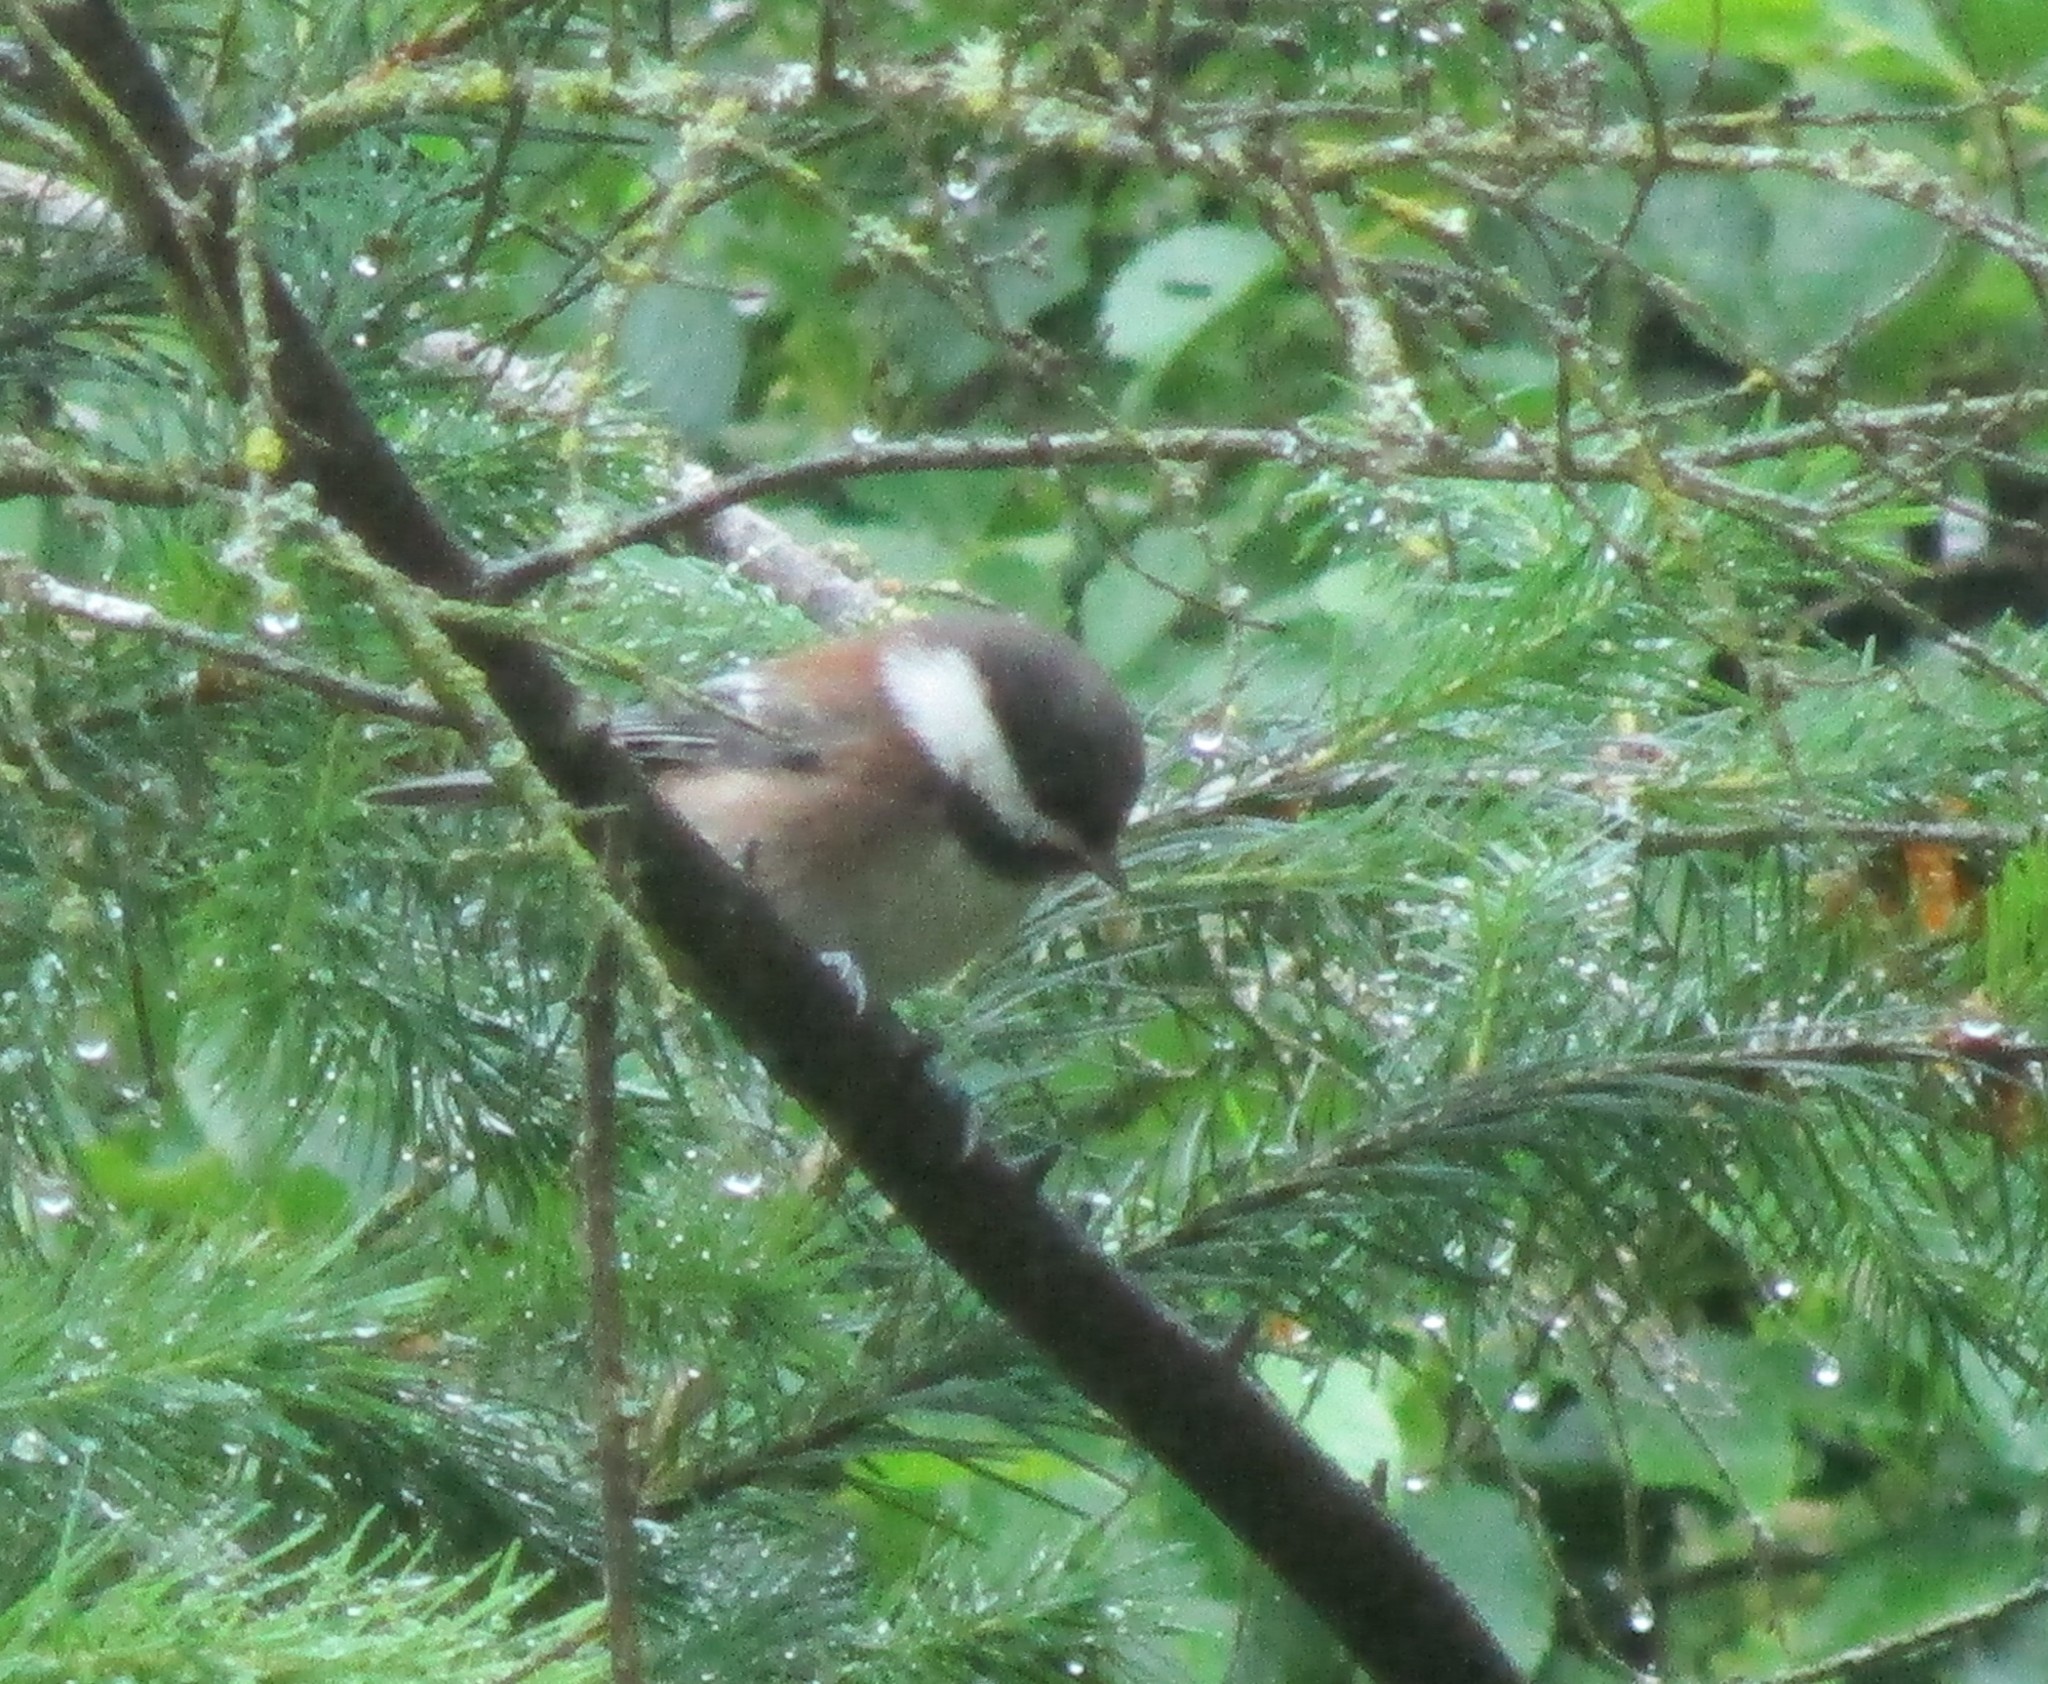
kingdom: Animalia
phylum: Chordata
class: Aves
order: Passeriformes
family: Paridae
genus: Poecile
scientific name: Poecile rufescens
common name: Chestnut-backed chickadee
